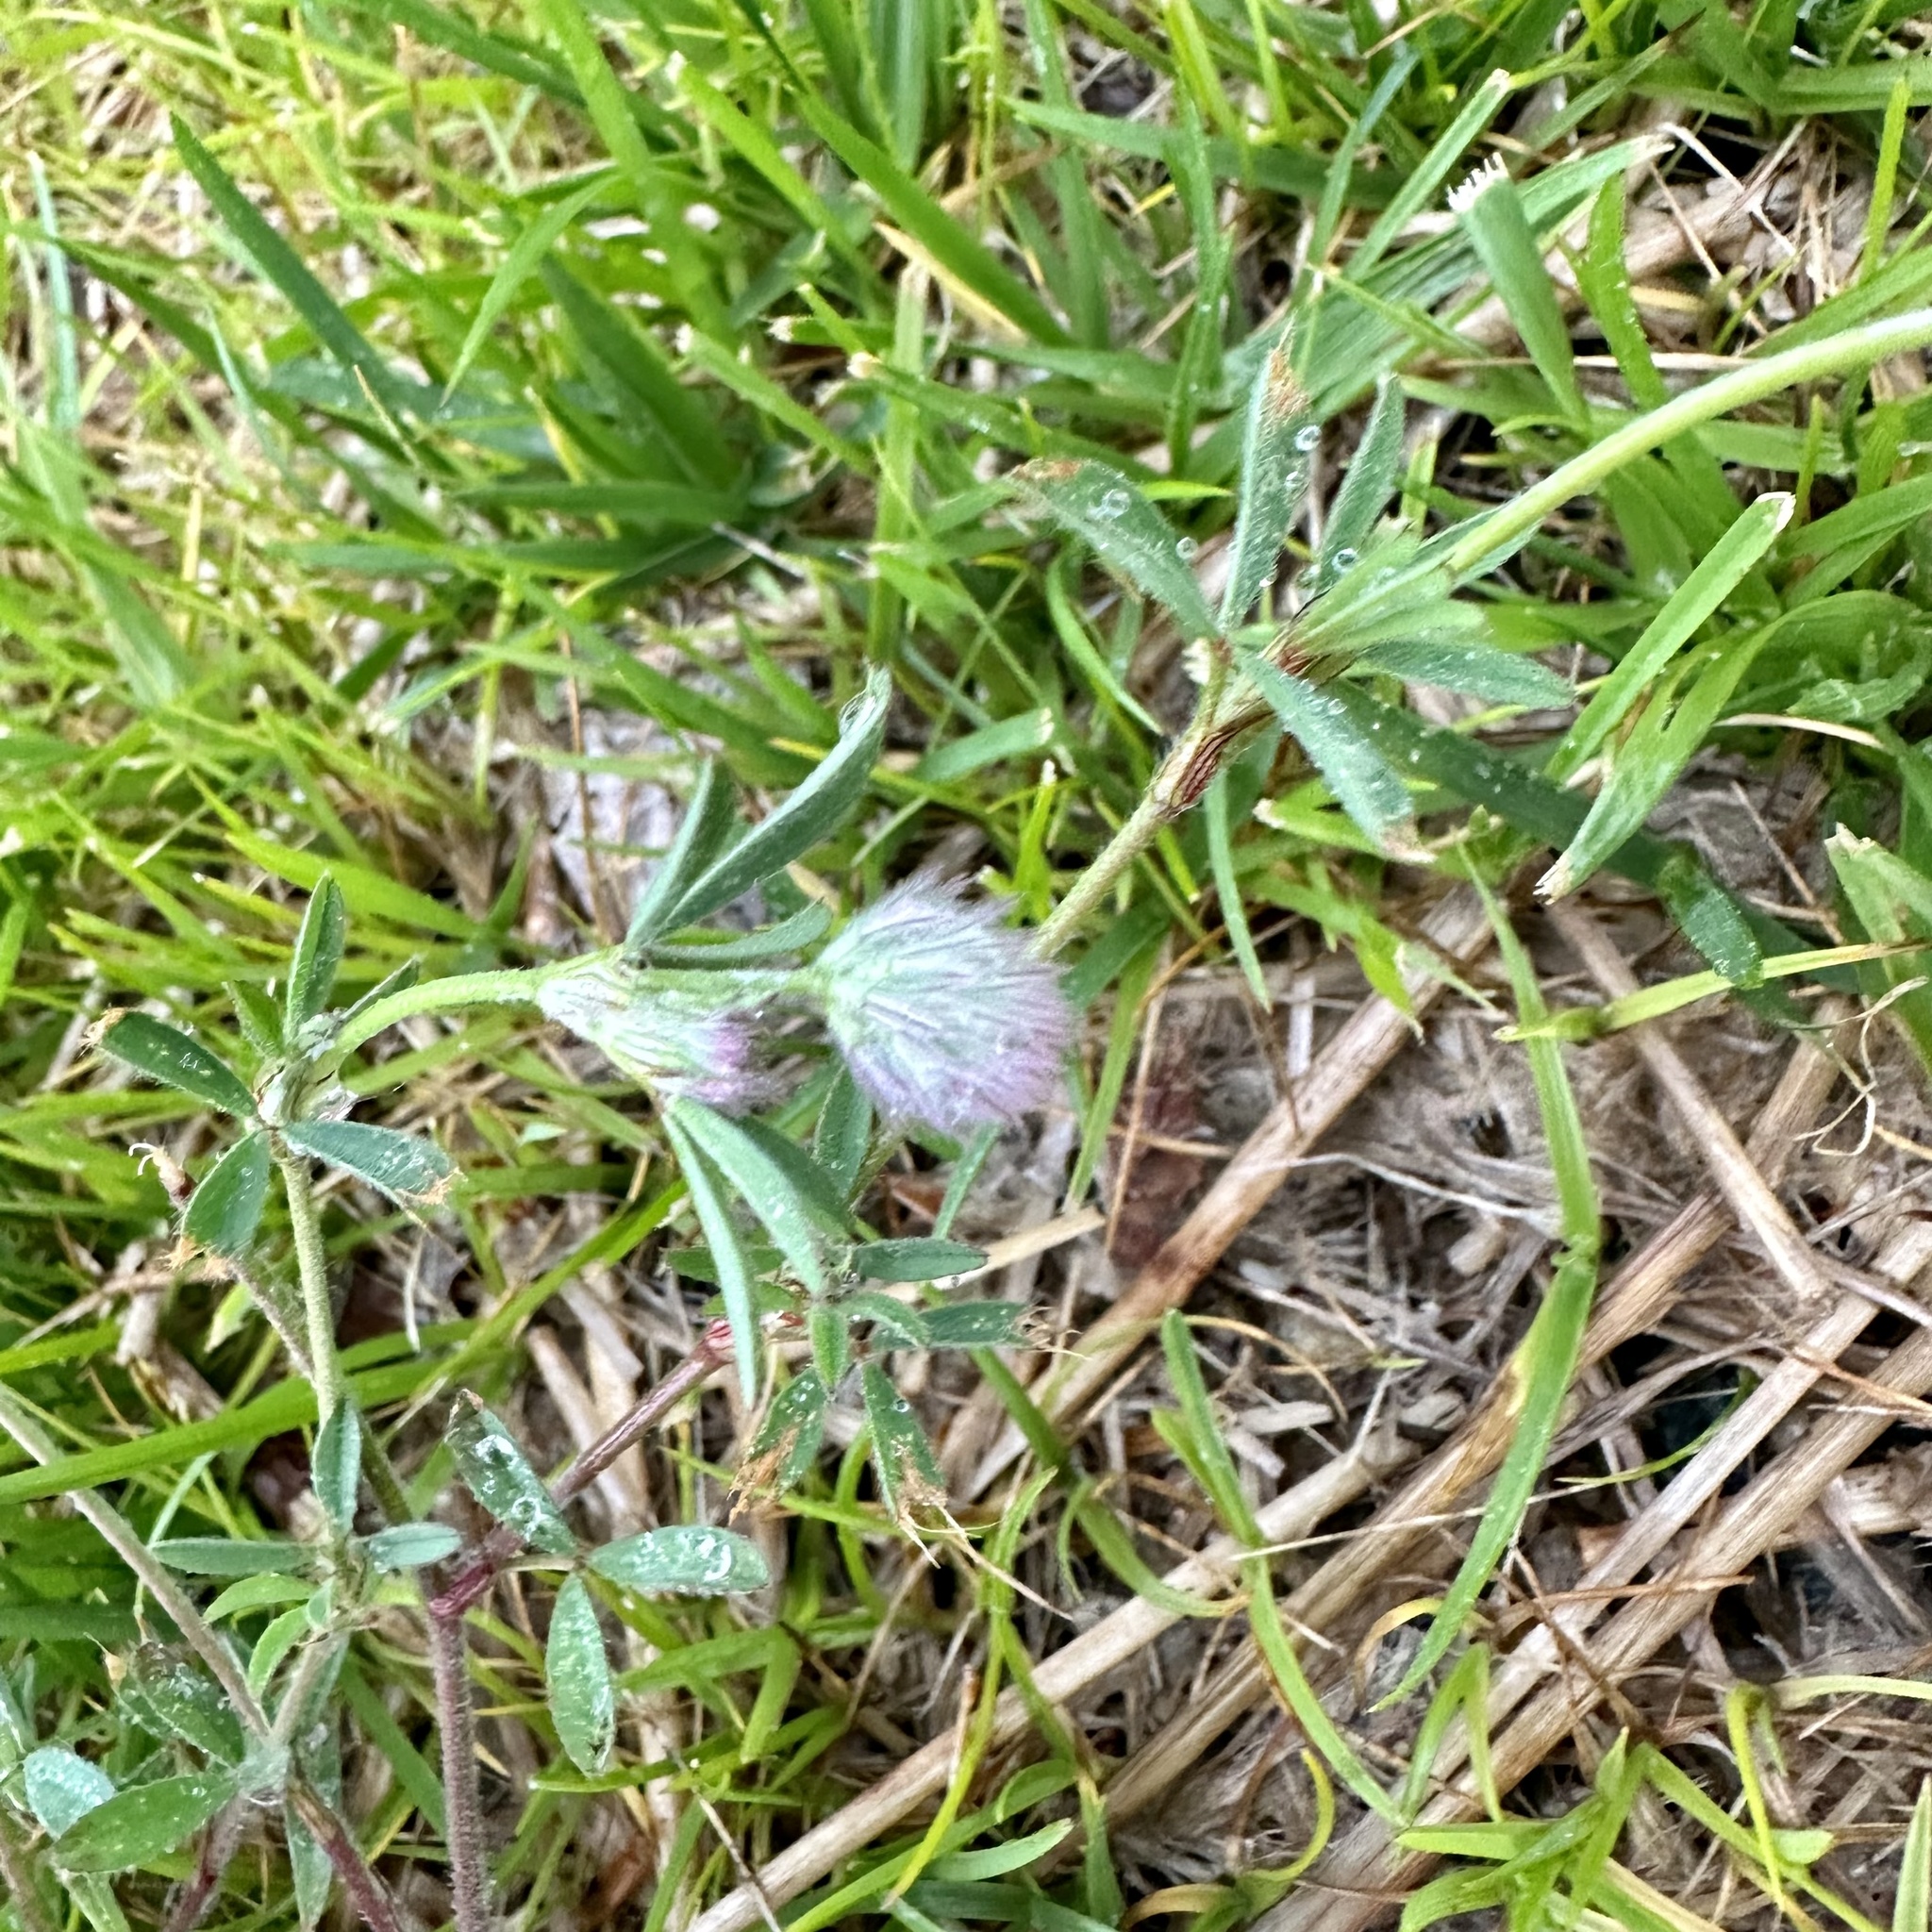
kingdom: Plantae
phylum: Tracheophyta
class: Magnoliopsida
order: Fabales
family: Fabaceae
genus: Trifolium
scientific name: Trifolium arvense
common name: Hare's-foot clover
